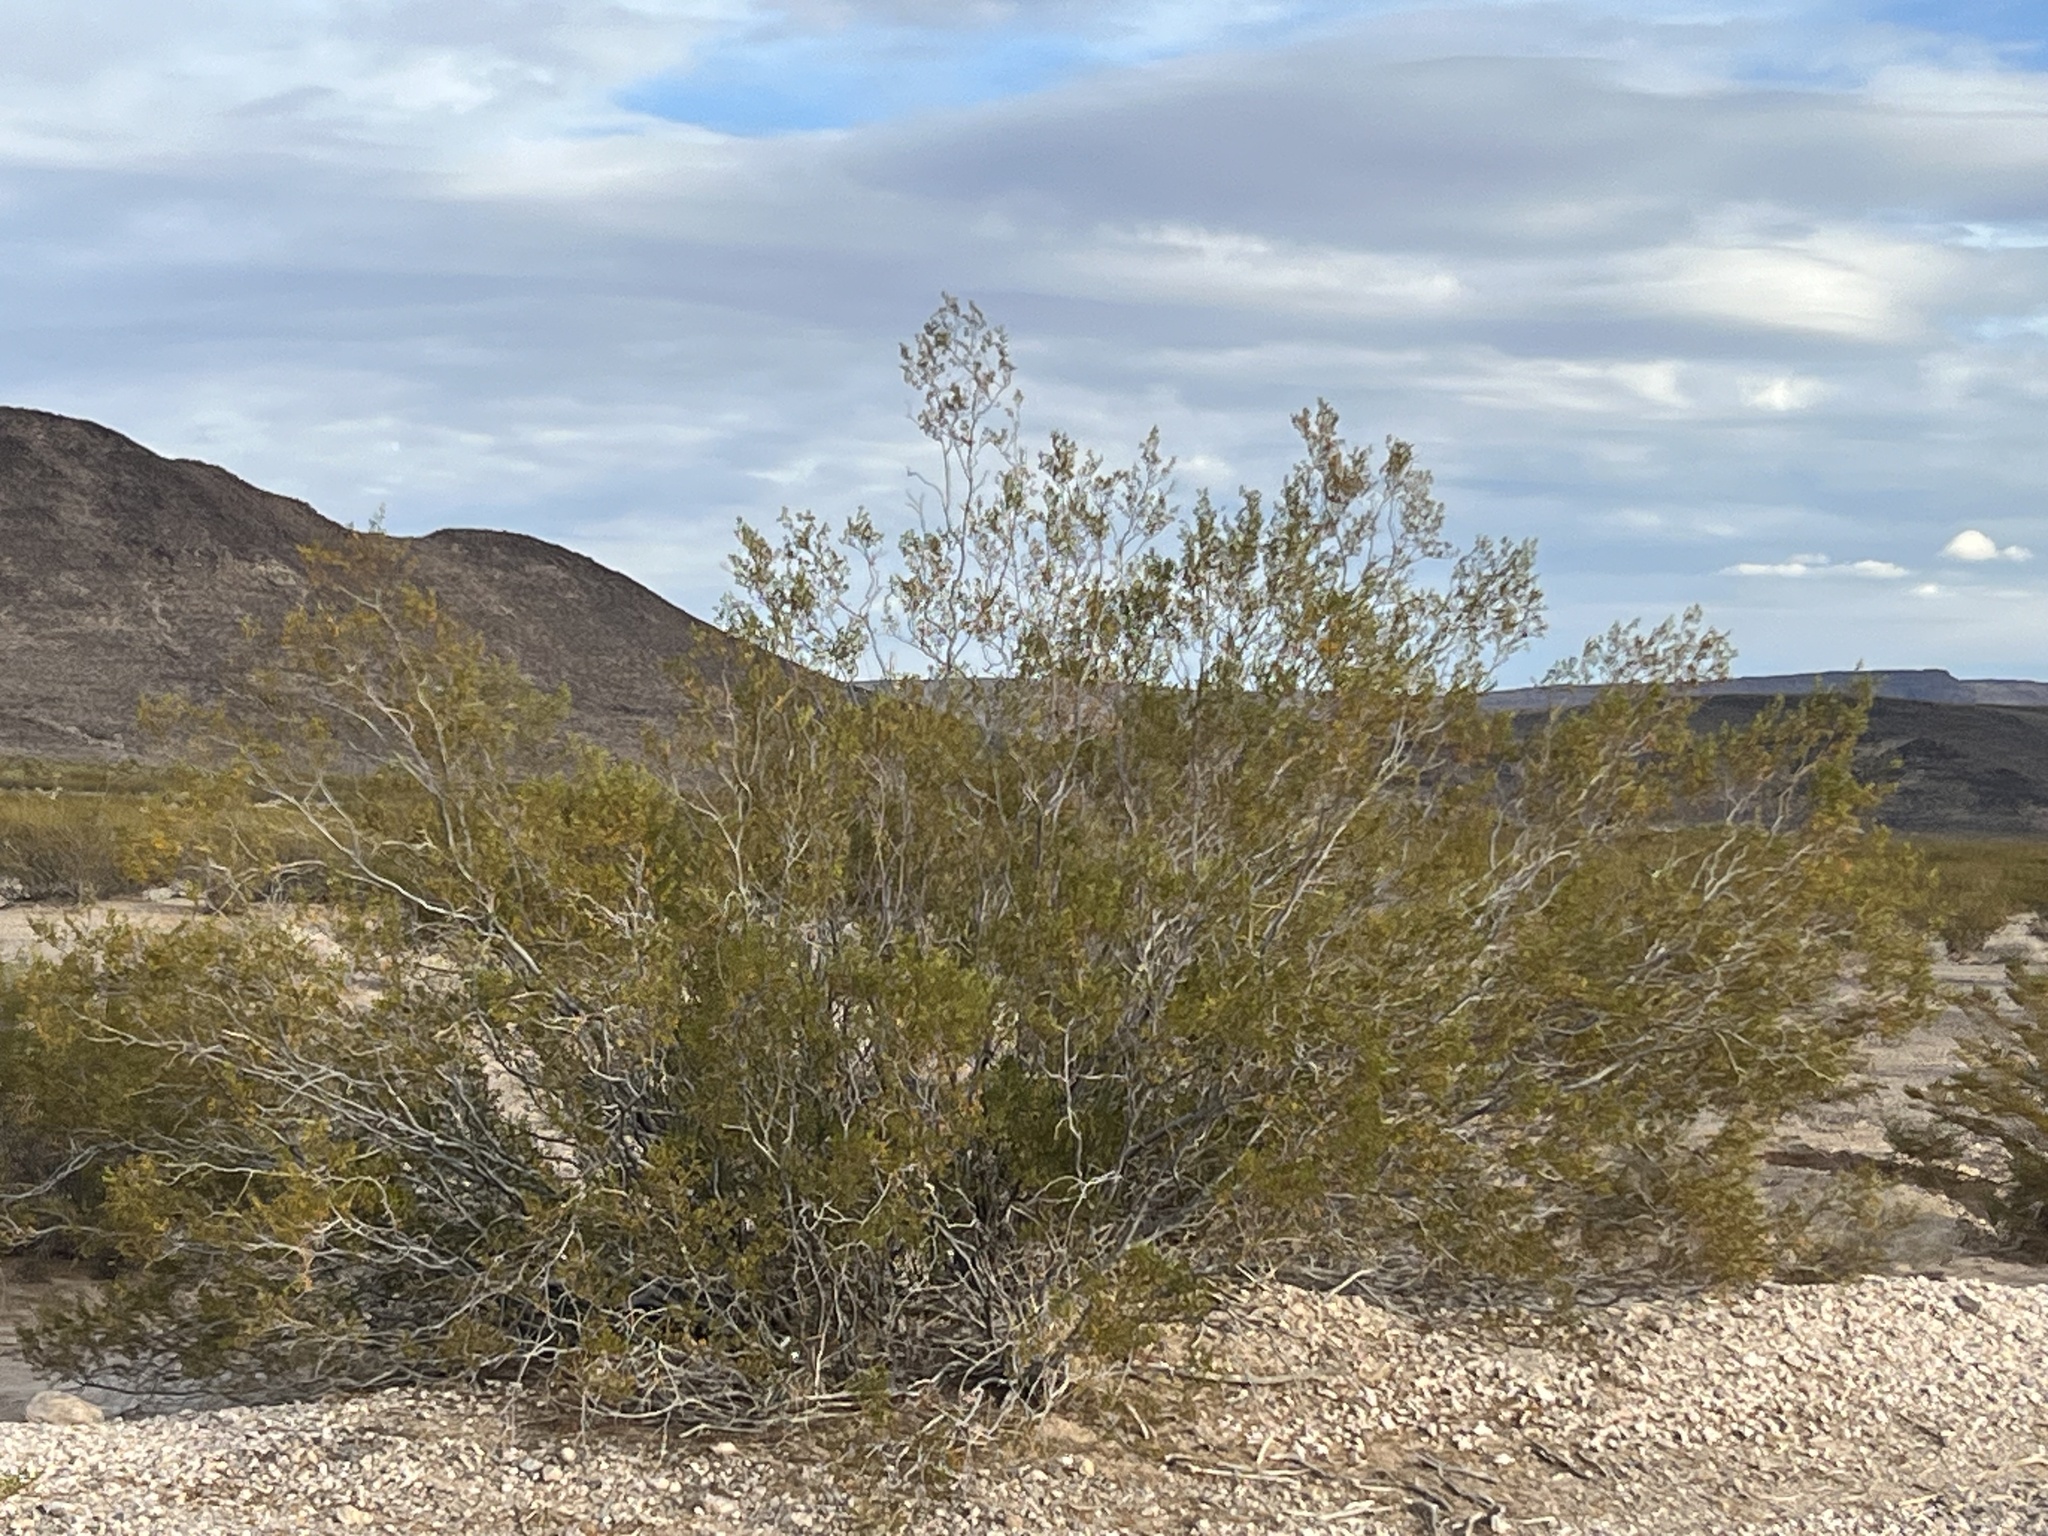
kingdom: Plantae
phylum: Tracheophyta
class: Magnoliopsida
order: Zygophyllales
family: Zygophyllaceae
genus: Larrea
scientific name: Larrea tridentata
